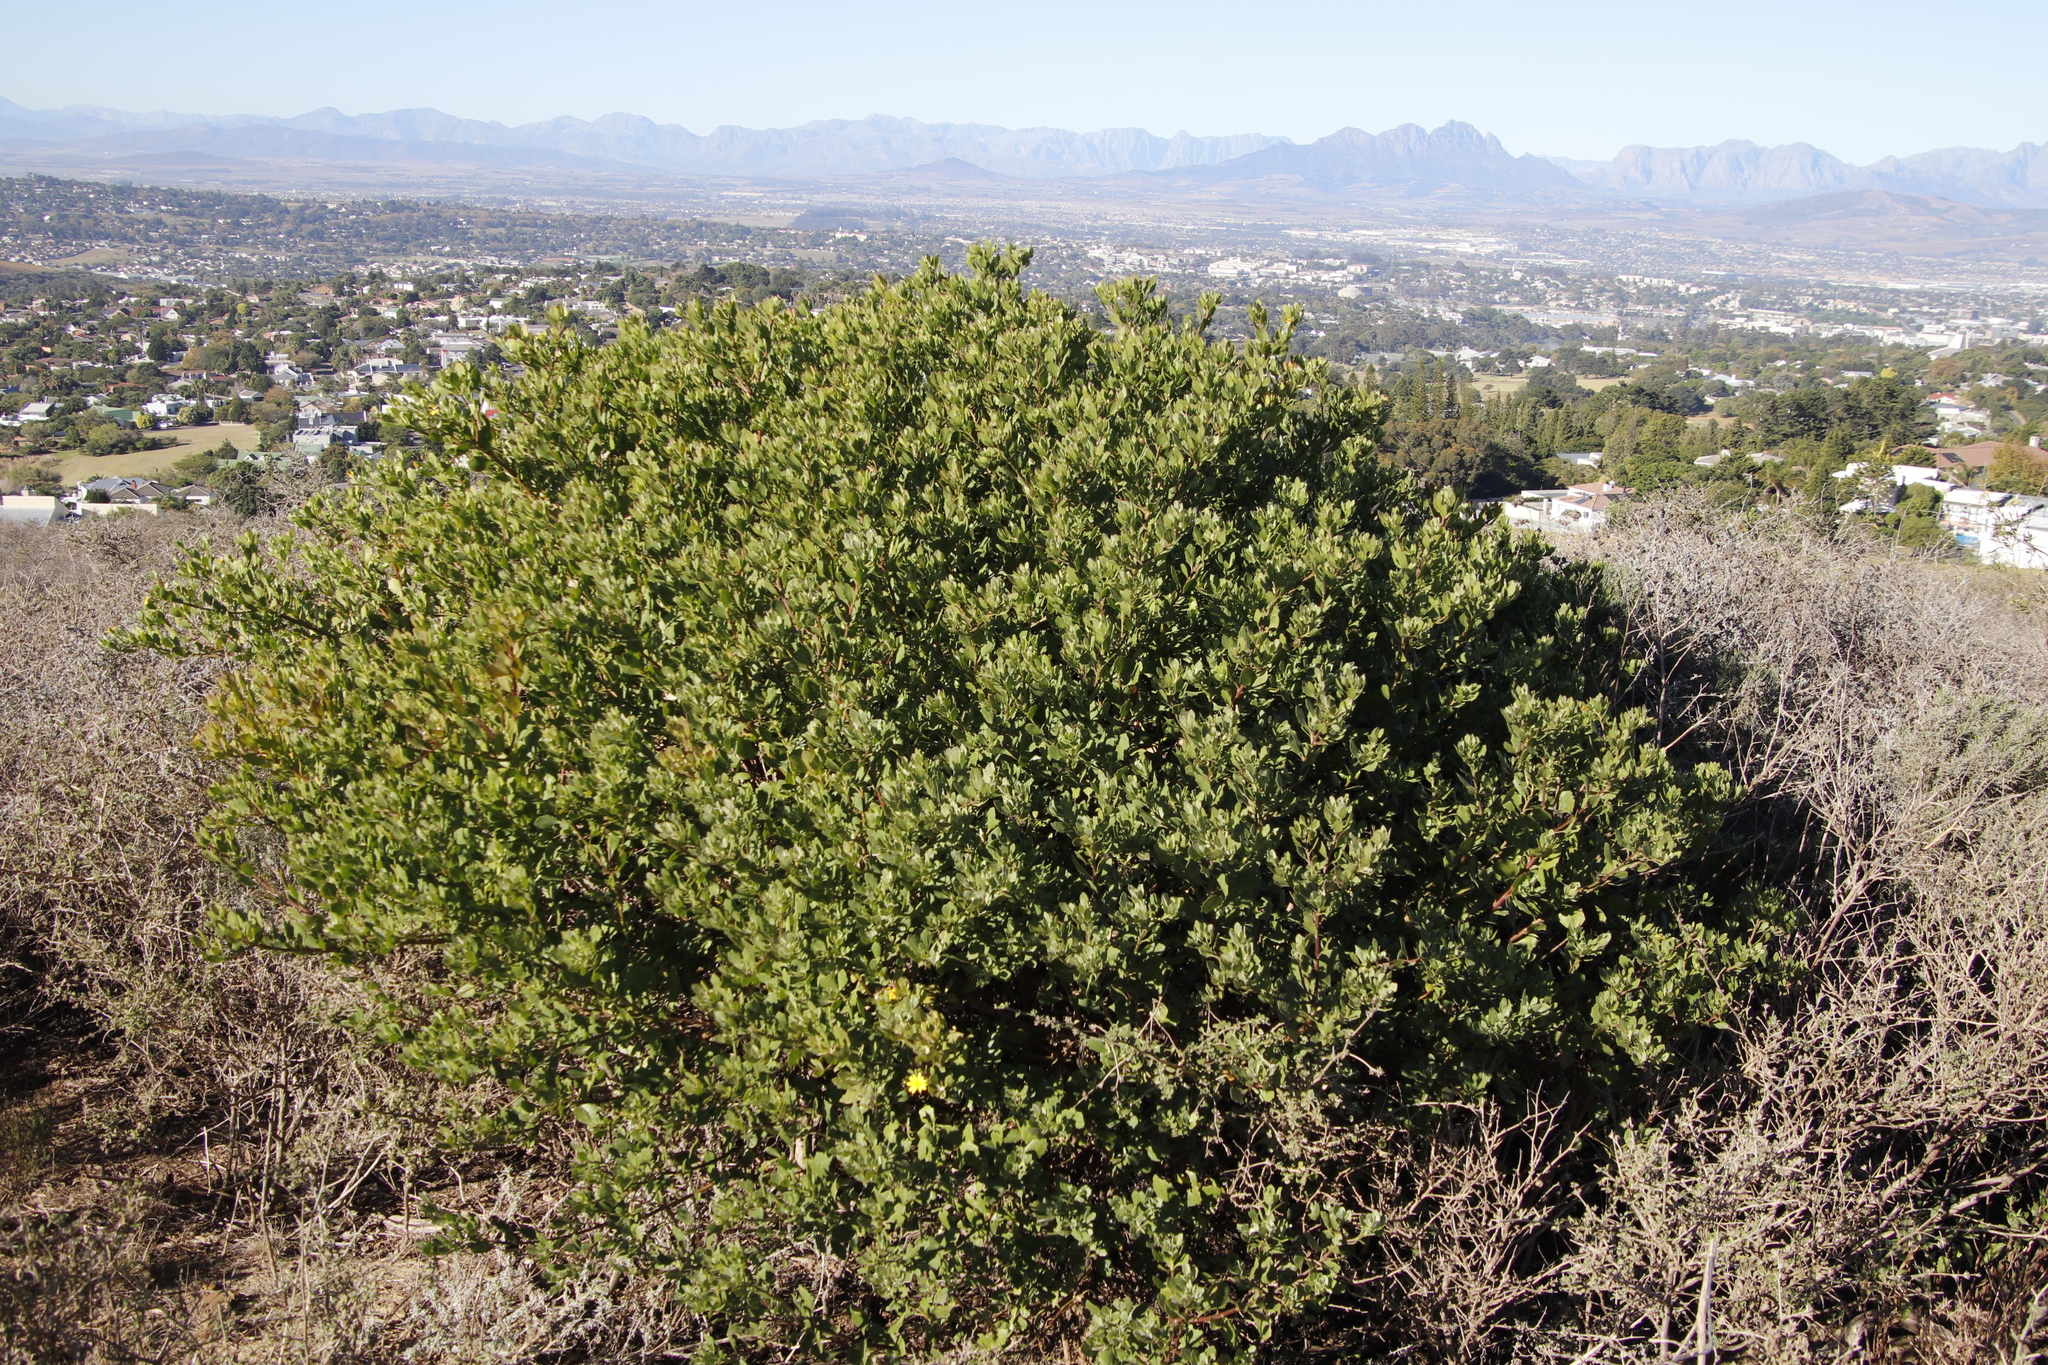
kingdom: Plantae
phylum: Tracheophyta
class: Magnoliopsida
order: Asterales
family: Asteraceae
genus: Osteospermum
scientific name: Osteospermum moniliferum
